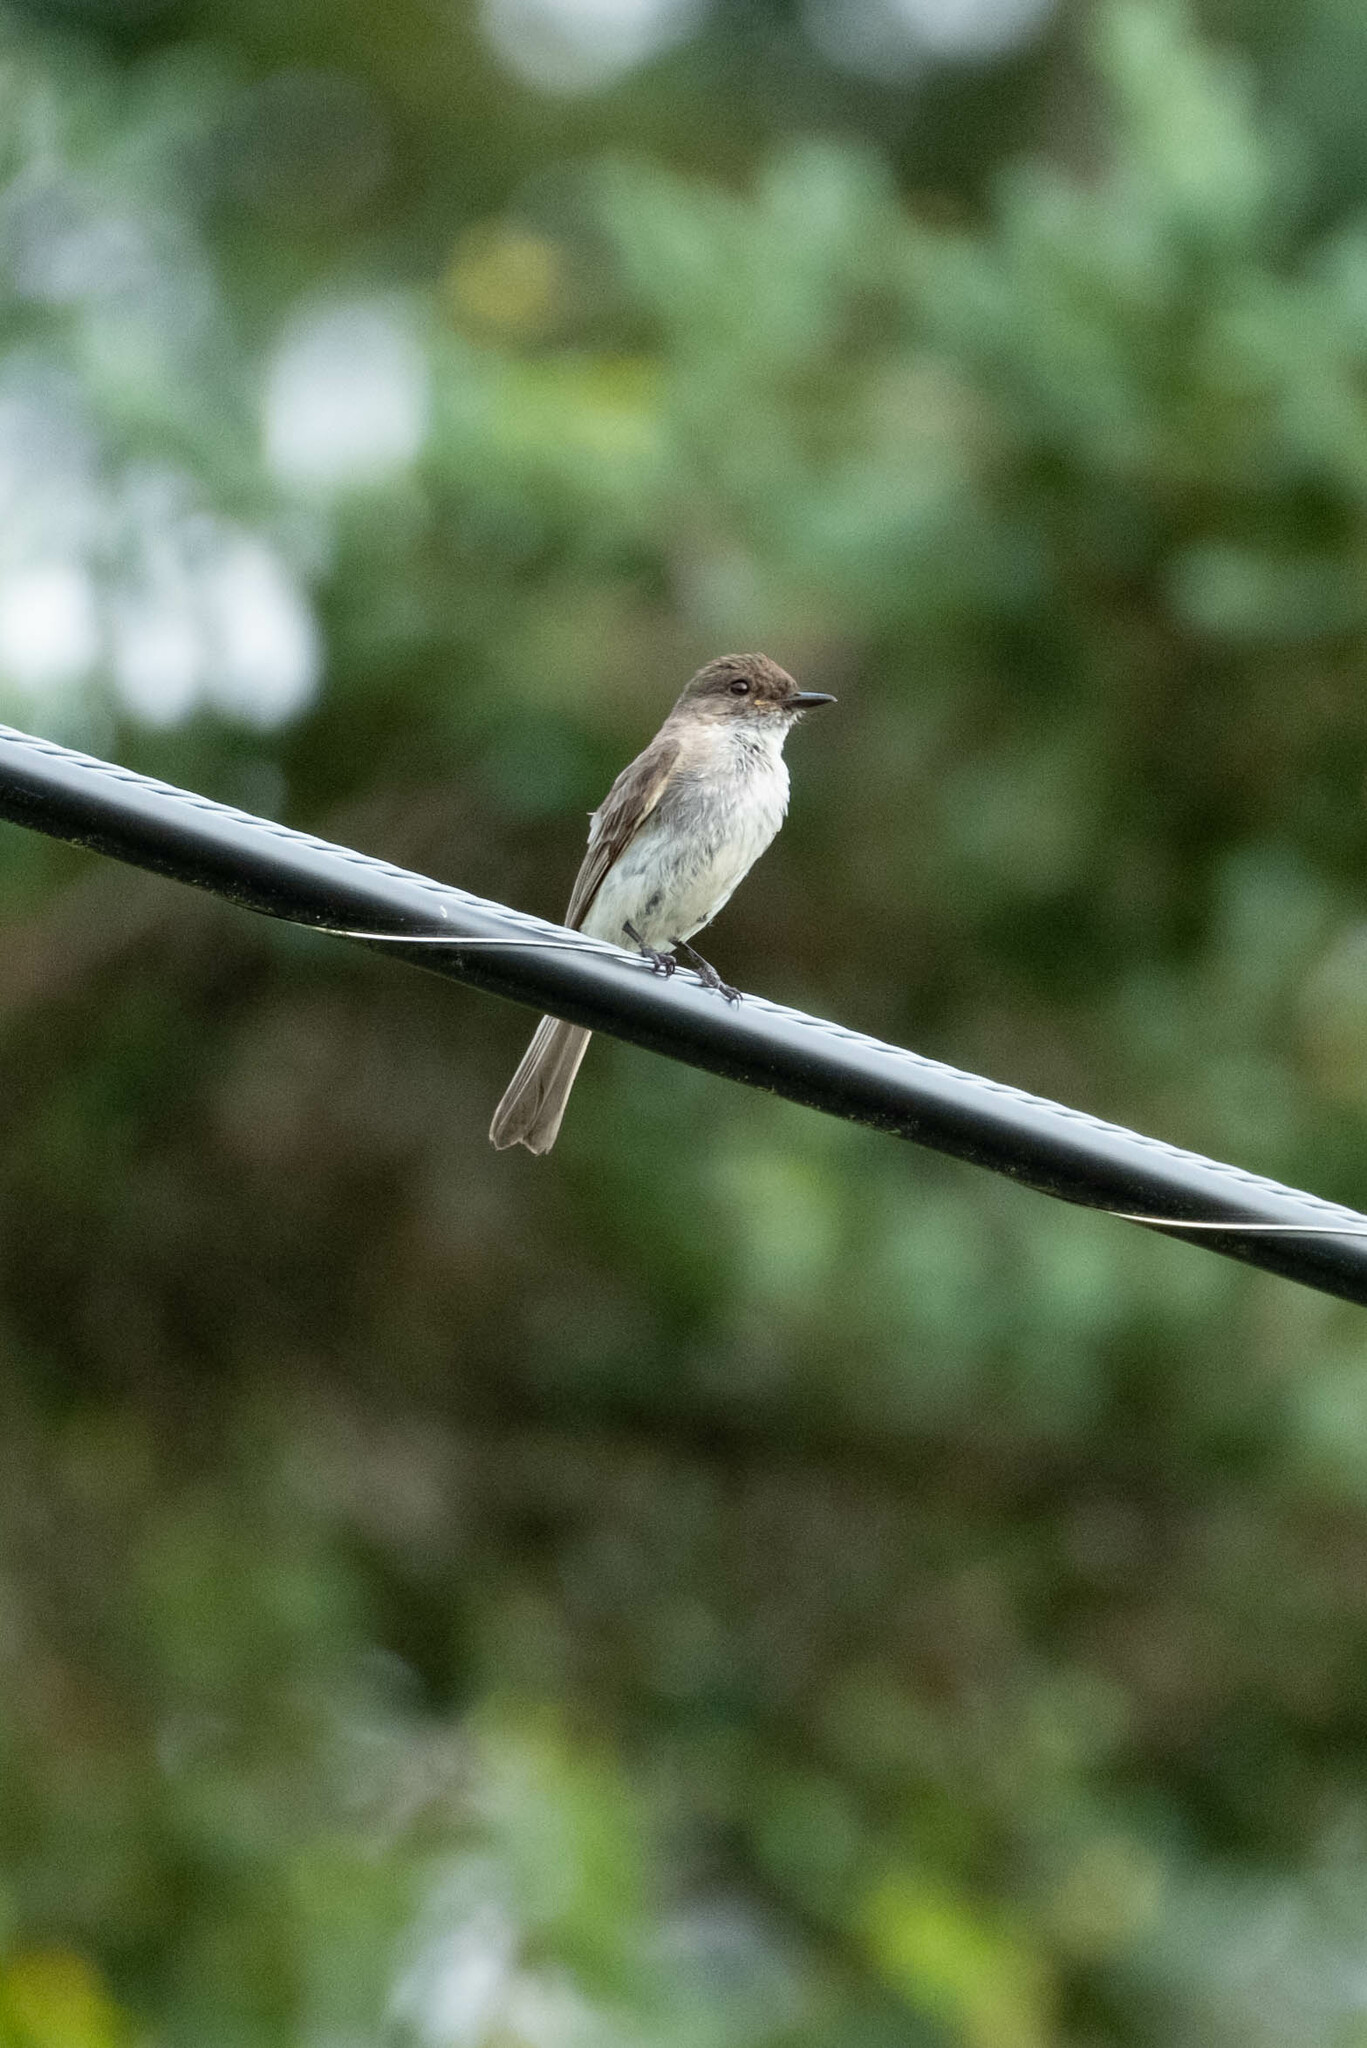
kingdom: Animalia
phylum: Chordata
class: Aves
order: Passeriformes
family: Tyrannidae
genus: Sayornis
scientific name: Sayornis phoebe
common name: Eastern phoebe
